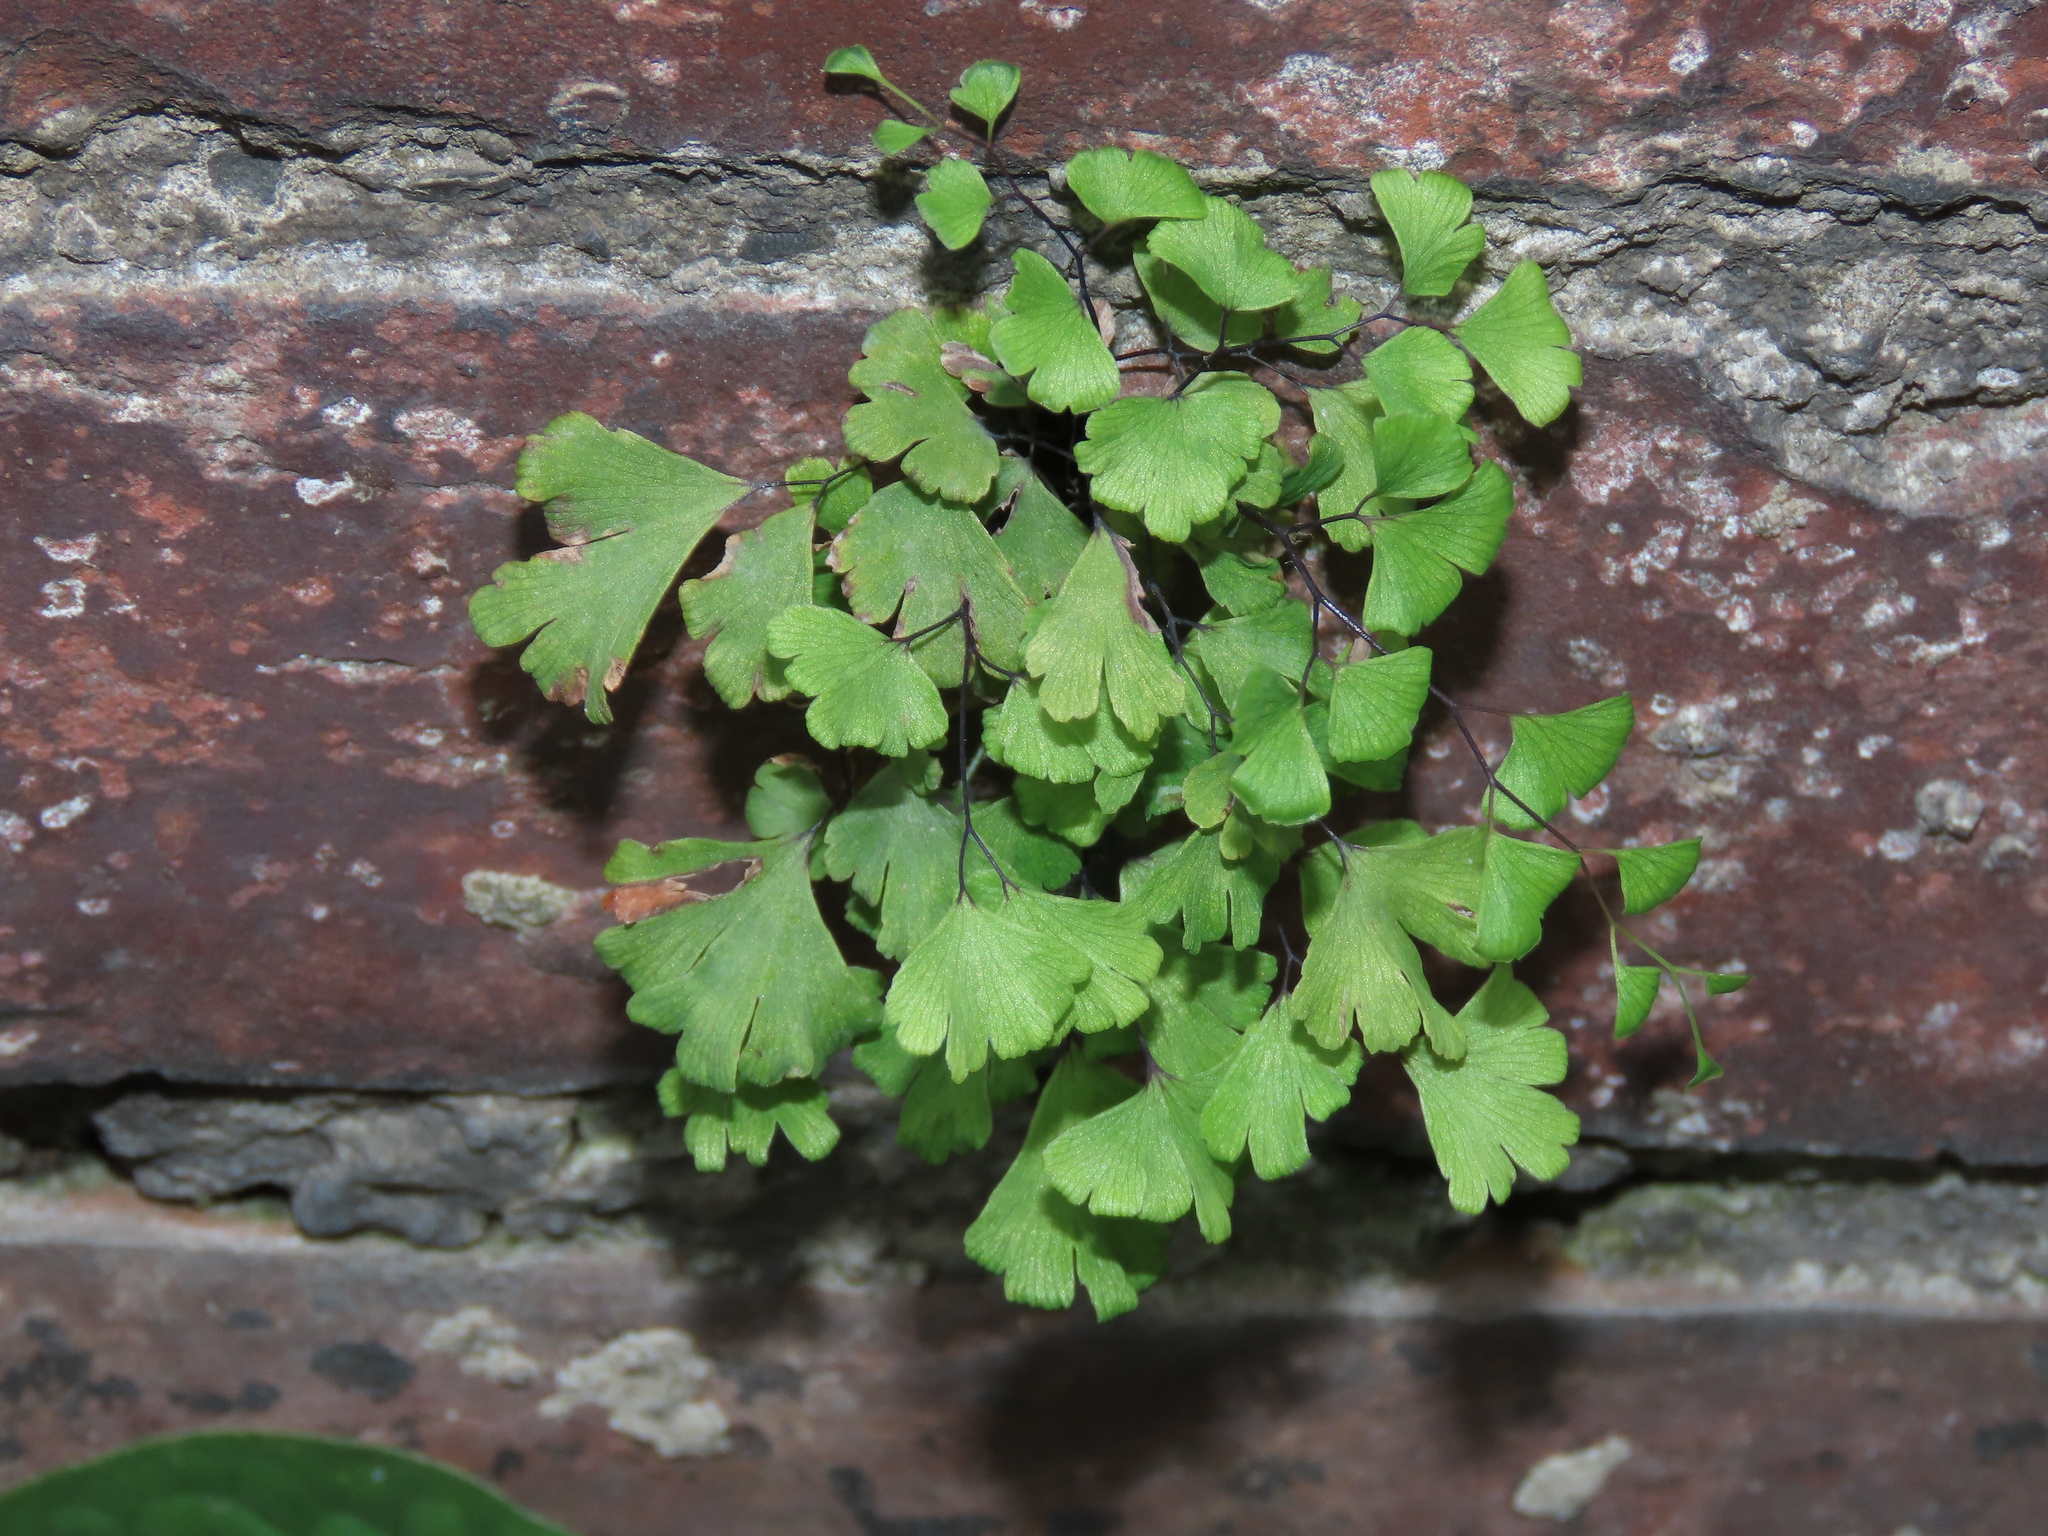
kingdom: Plantae
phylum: Tracheophyta
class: Polypodiopsida
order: Polypodiales
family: Pteridaceae
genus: Adiantum
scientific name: Adiantum capillus-veneris
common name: Maidenhair fern
